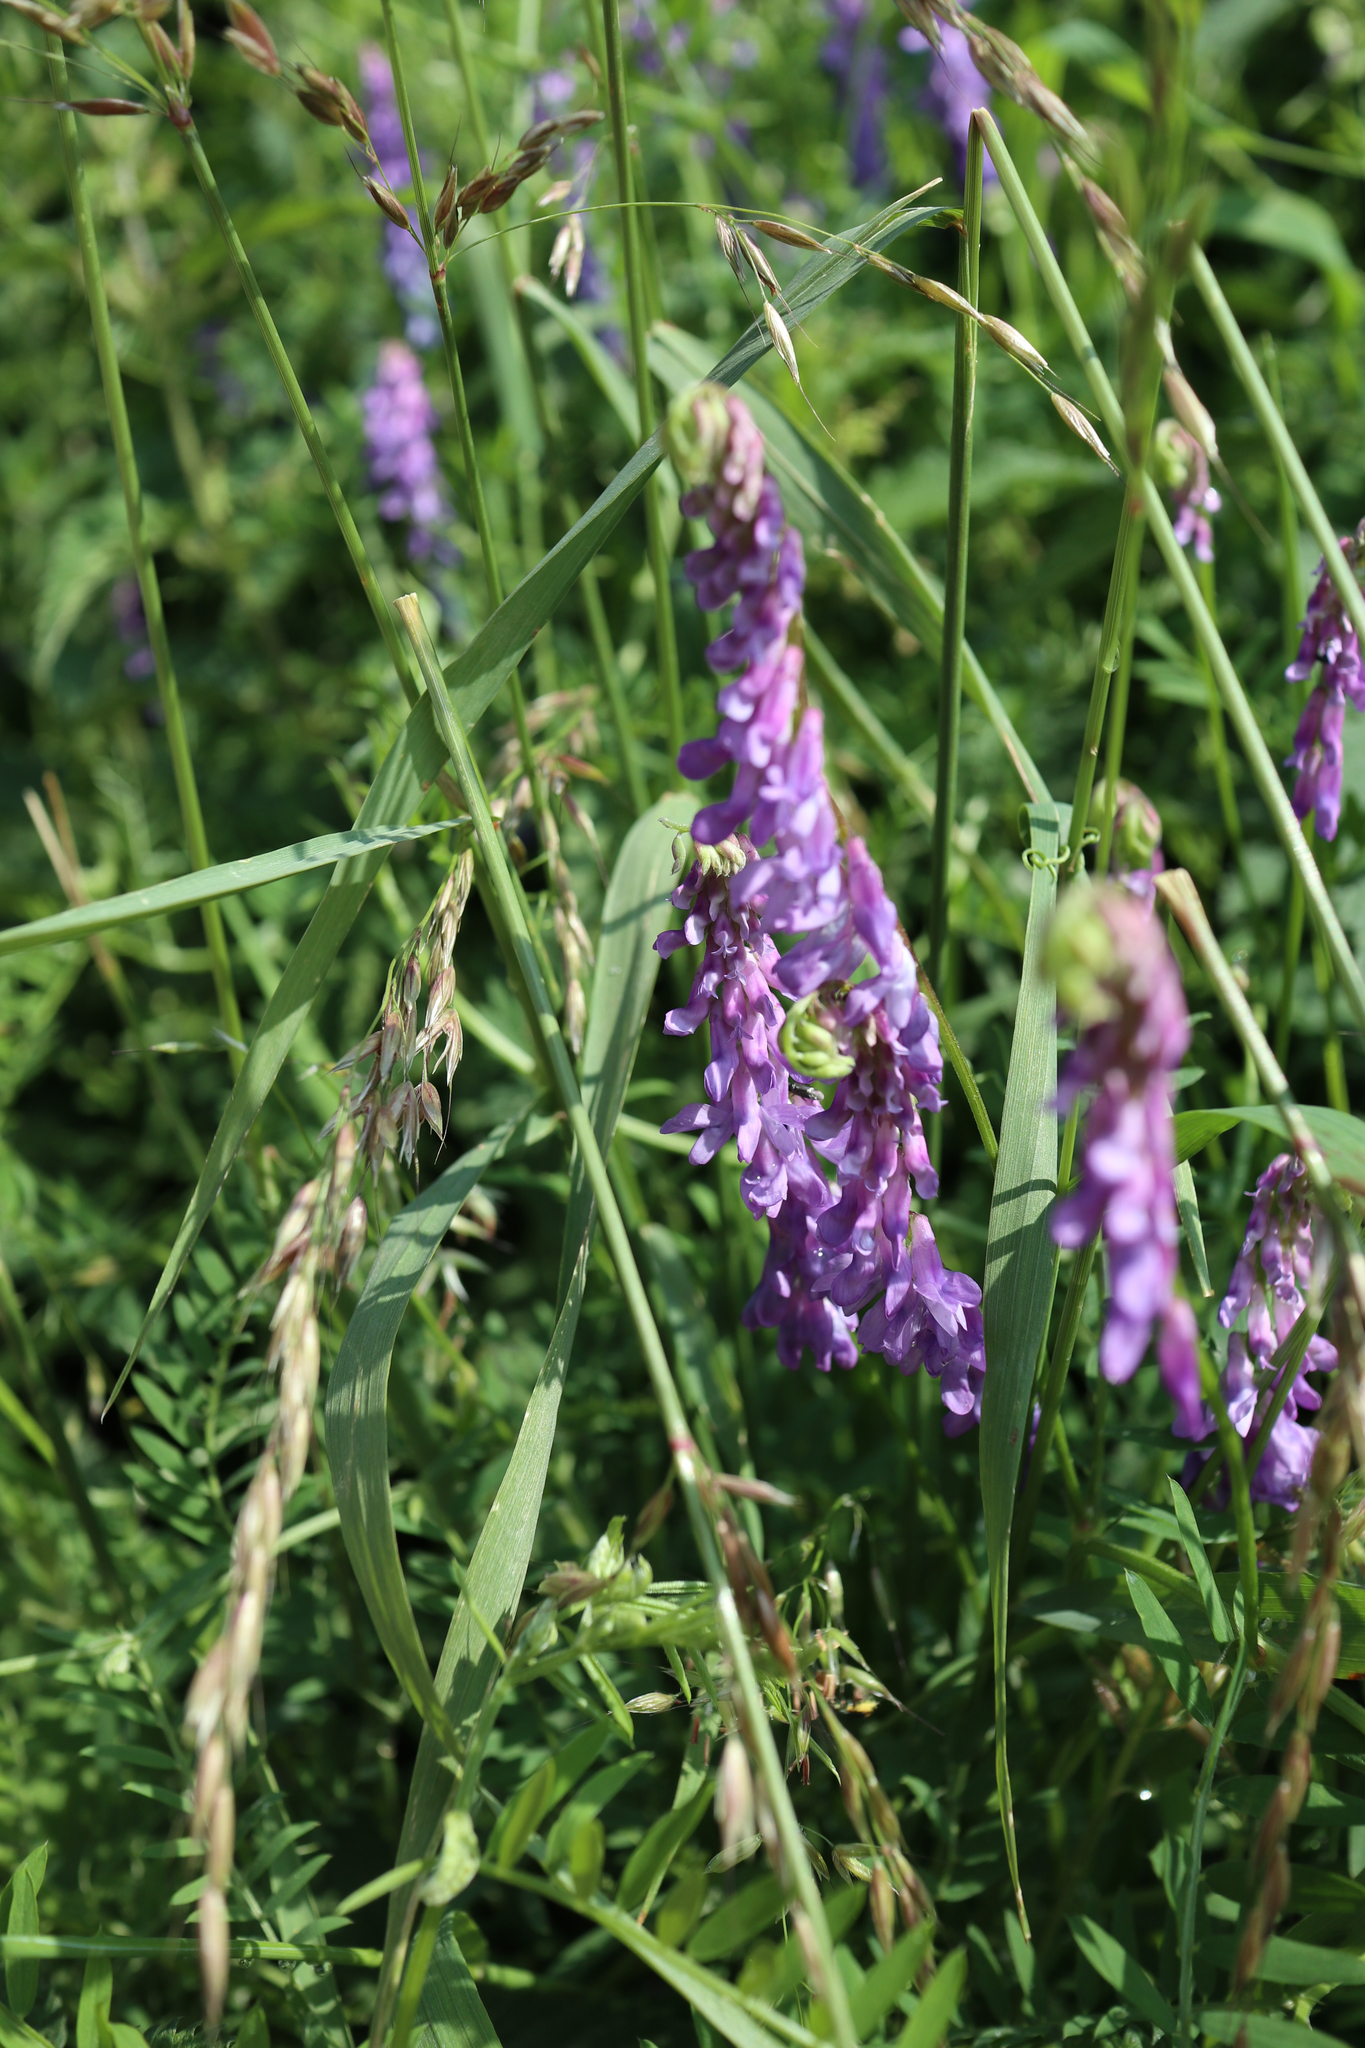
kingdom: Plantae
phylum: Tracheophyta
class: Magnoliopsida
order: Fabales
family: Fabaceae
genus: Vicia
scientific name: Vicia cracca
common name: Bird vetch
